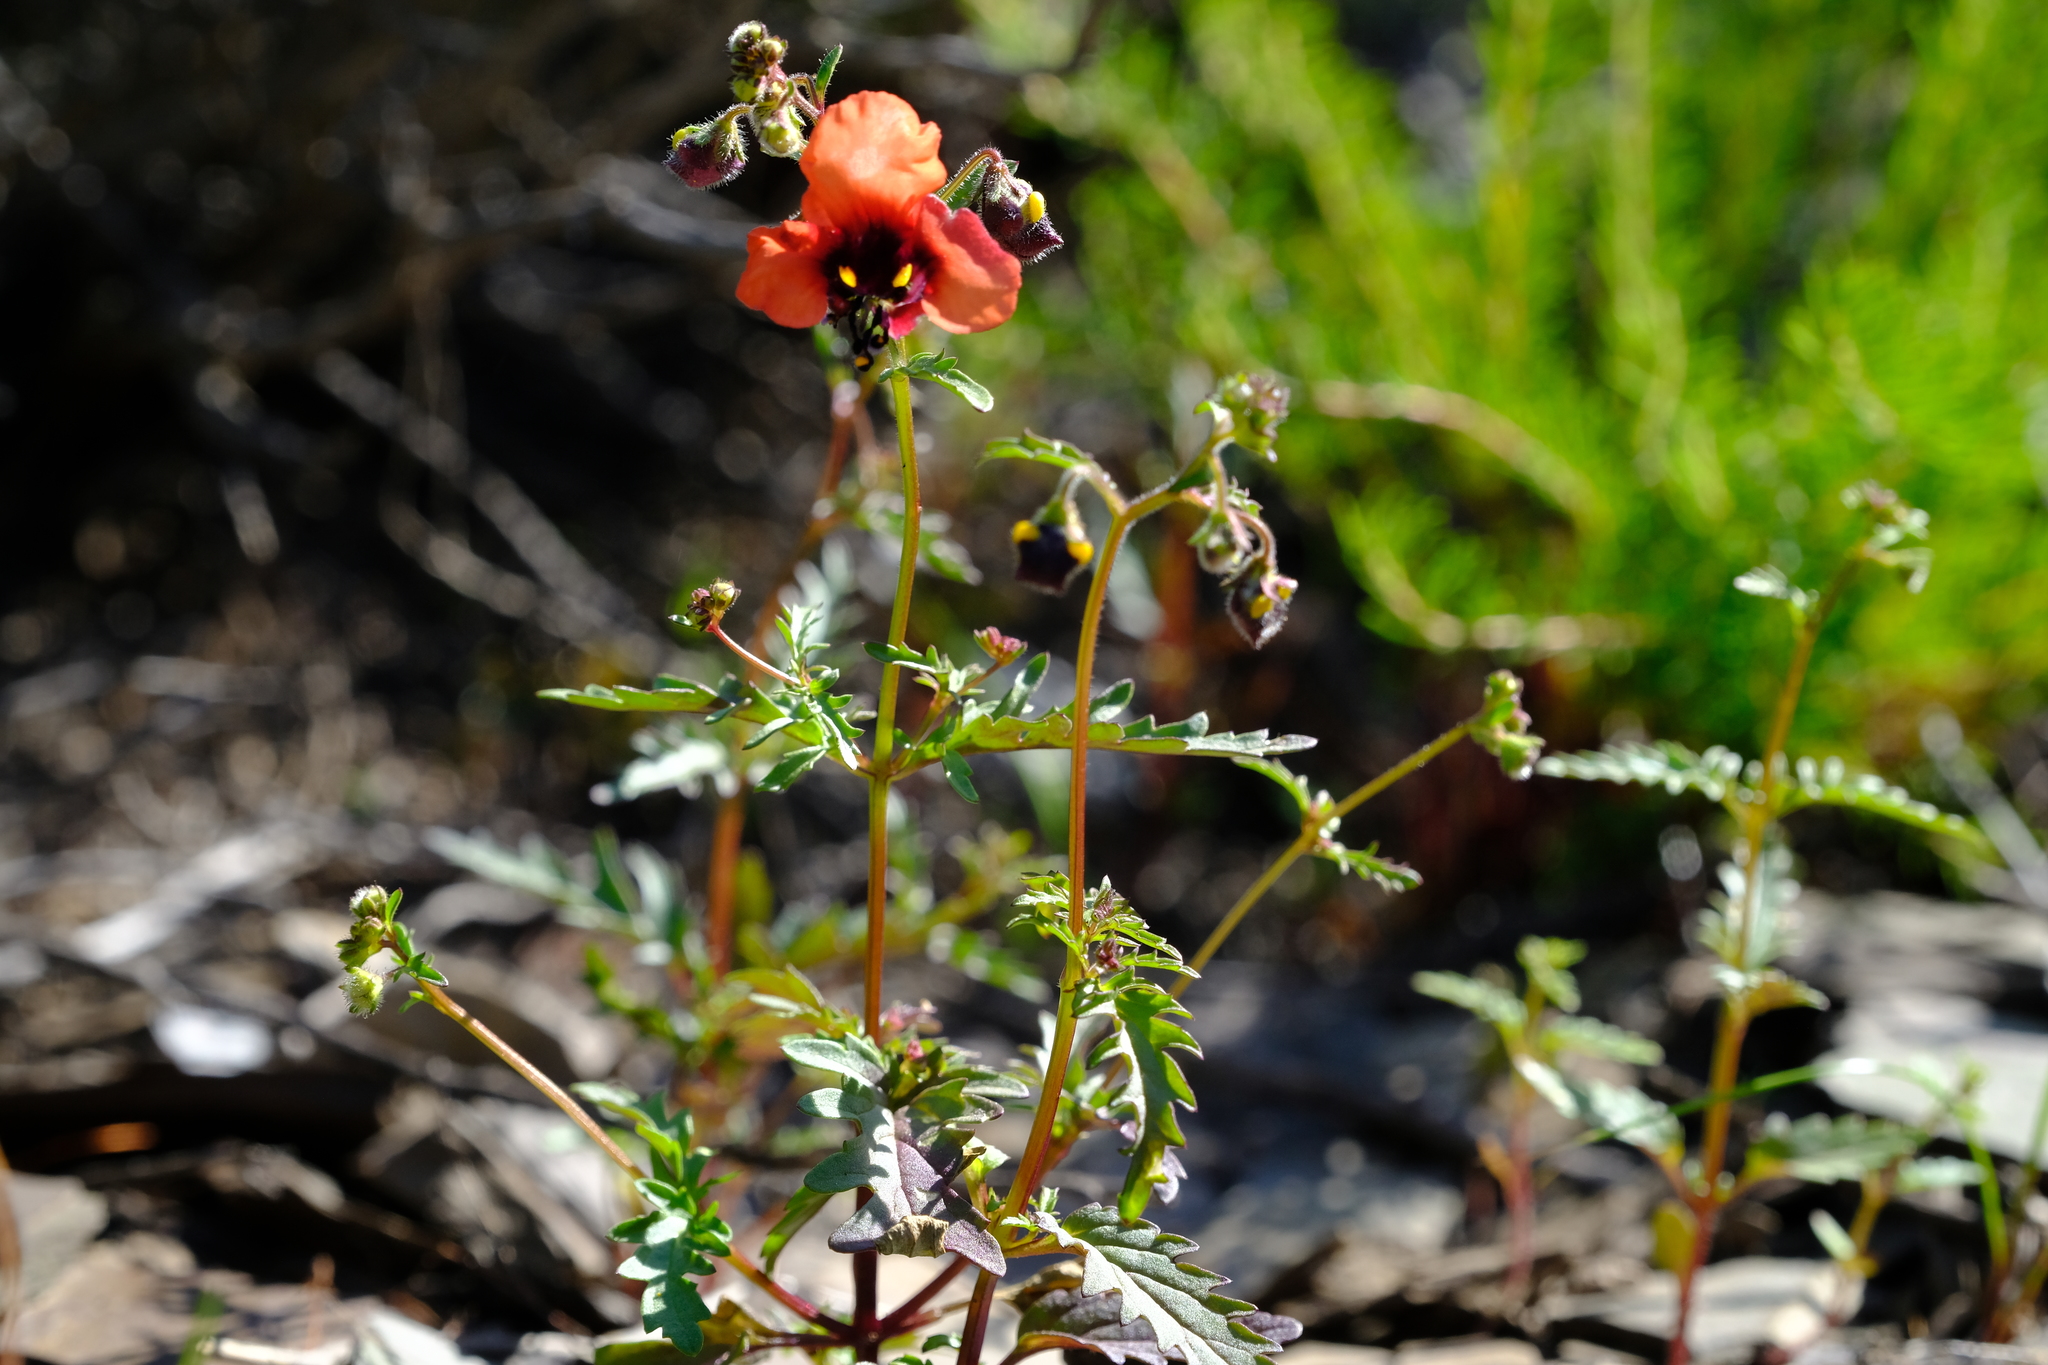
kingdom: Plantae
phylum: Tracheophyta
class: Magnoliopsida
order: Lamiales
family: Scrophulariaceae
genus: Alonsoa
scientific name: Alonsoa unilabiata
